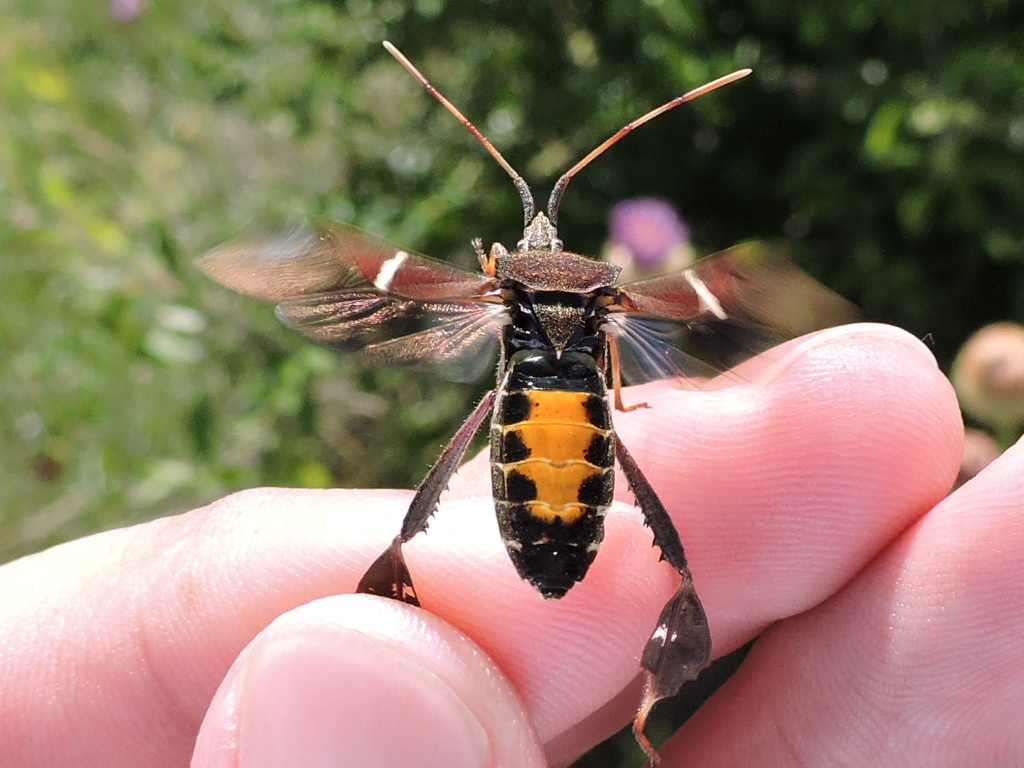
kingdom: Animalia
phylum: Arthropoda
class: Insecta
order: Hemiptera
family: Coreidae
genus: Leptoglossus
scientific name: Leptoglossus phyllopus
